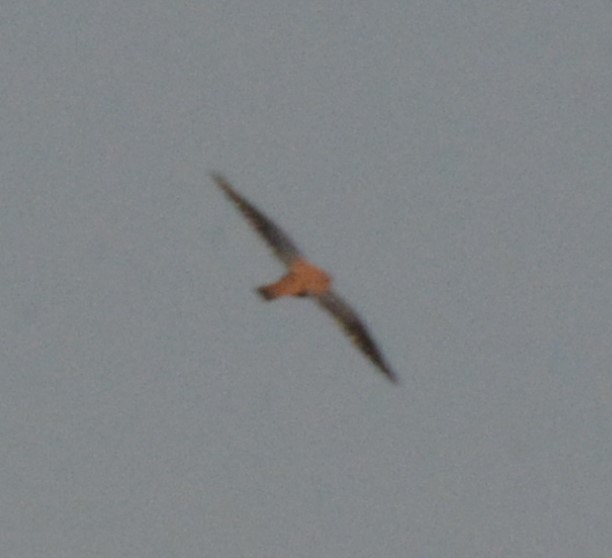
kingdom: Animalia
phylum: Chordata
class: Aves
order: Falconiformes
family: Falconidae
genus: Falco
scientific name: Falco sparverius
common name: American kestrel
